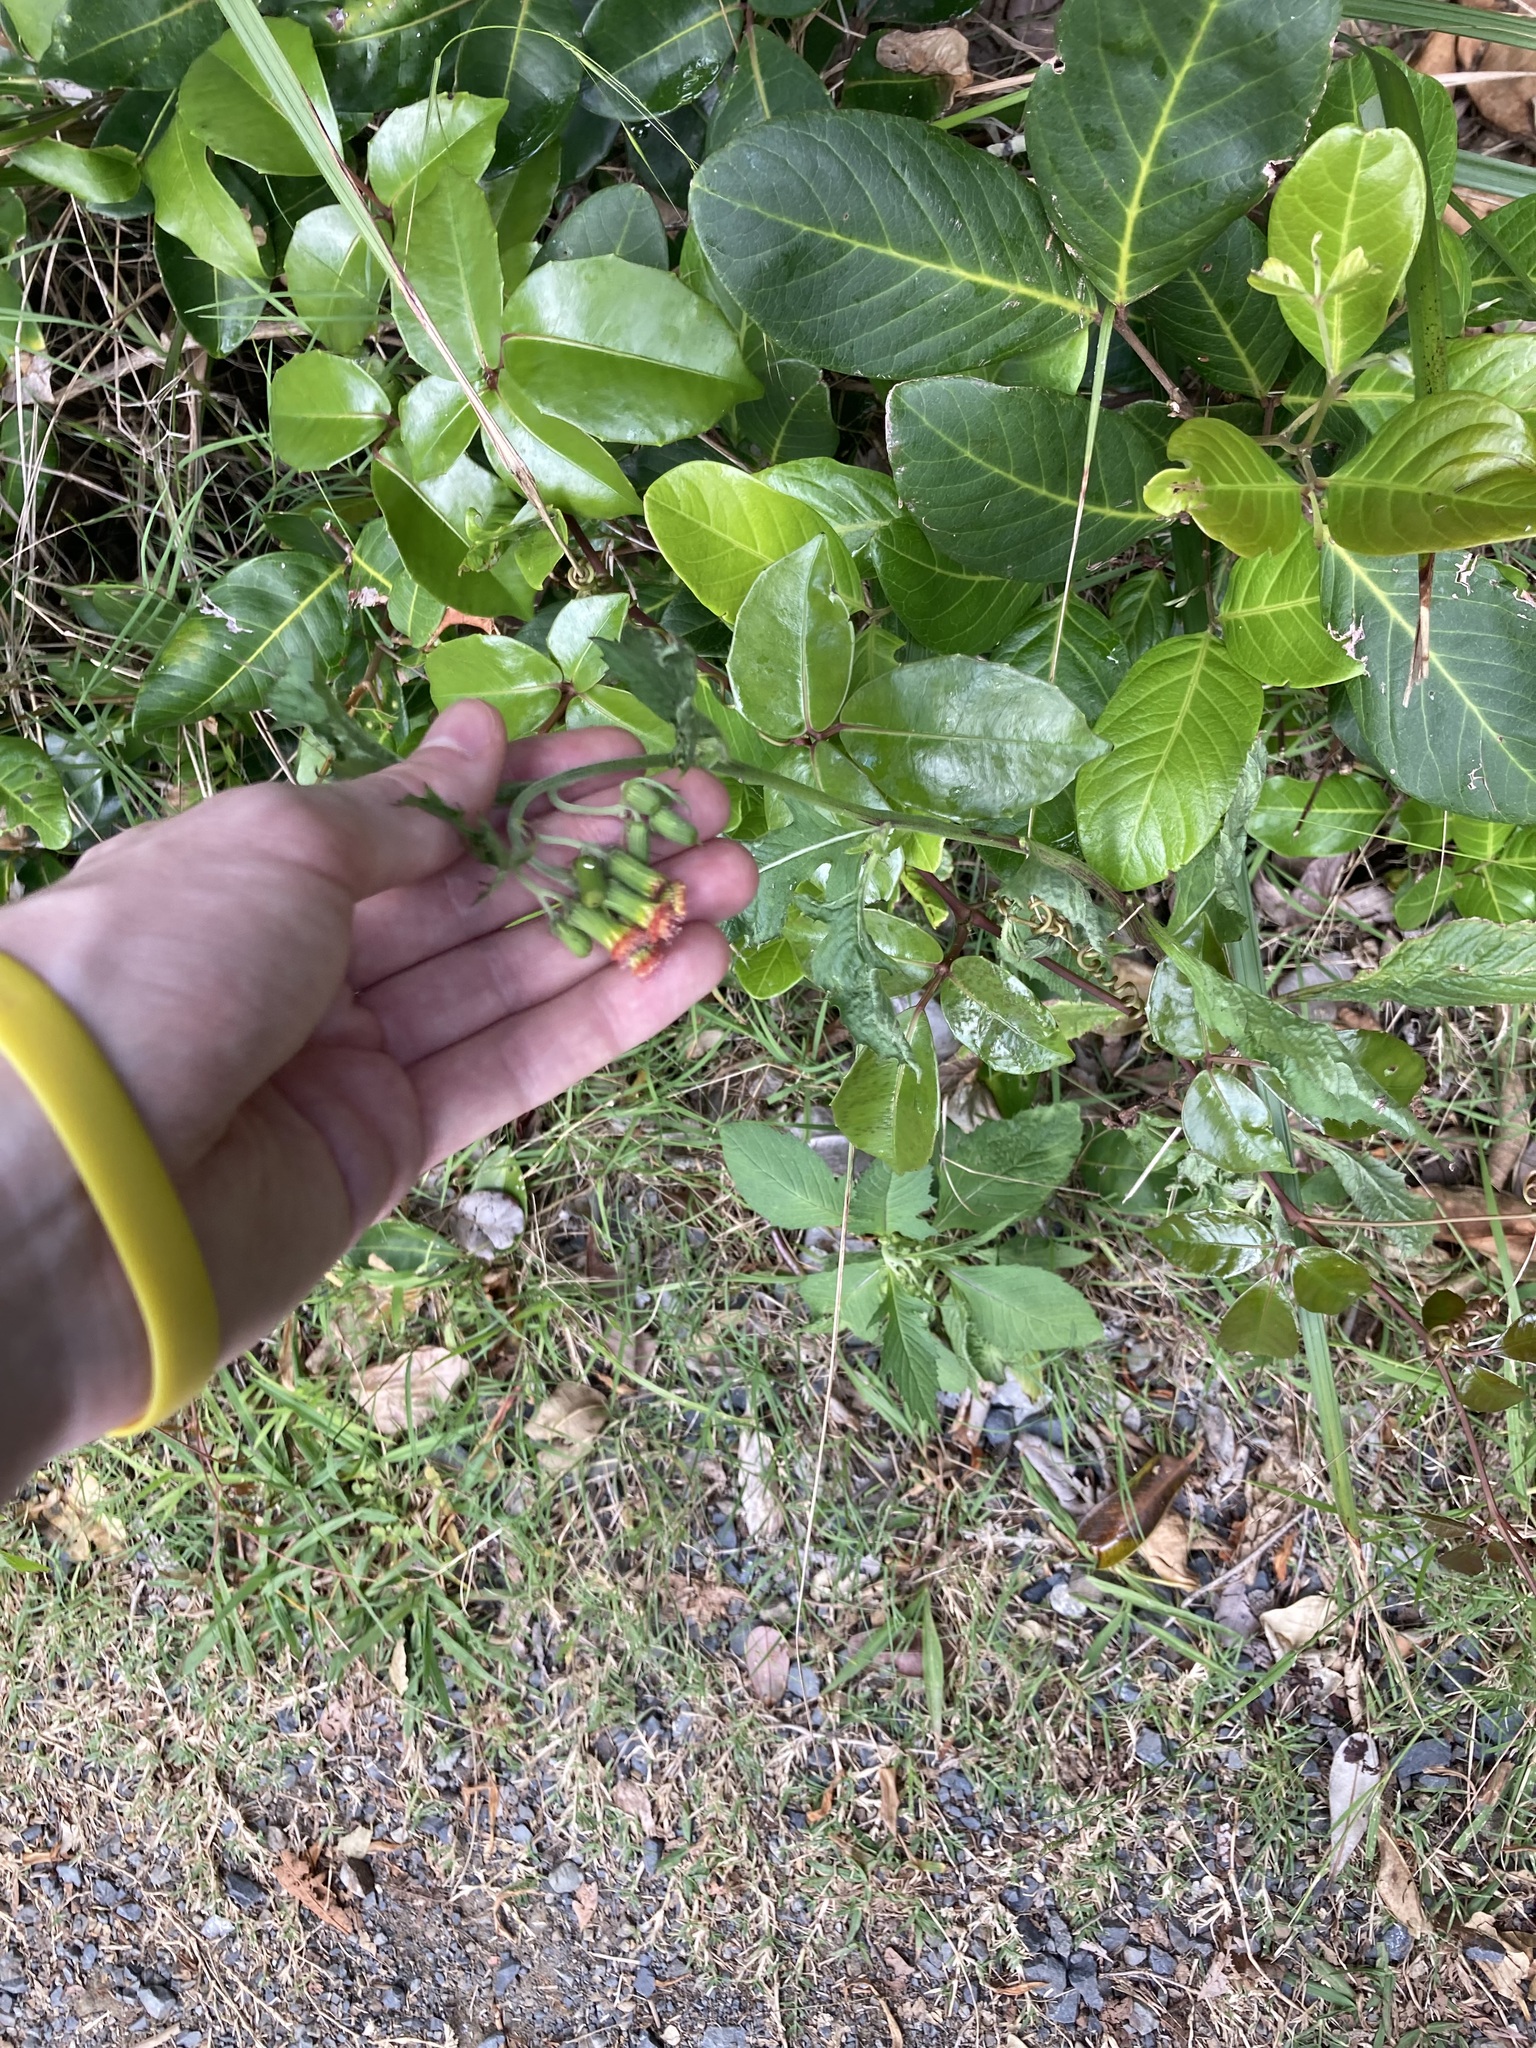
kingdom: Plantae
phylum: Tracheophyta
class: Magnoliopsida
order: Asterales
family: Asteraceae
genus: Crassocephalum
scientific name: Crassocephalum crepidioides
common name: Redflower ragleaf
